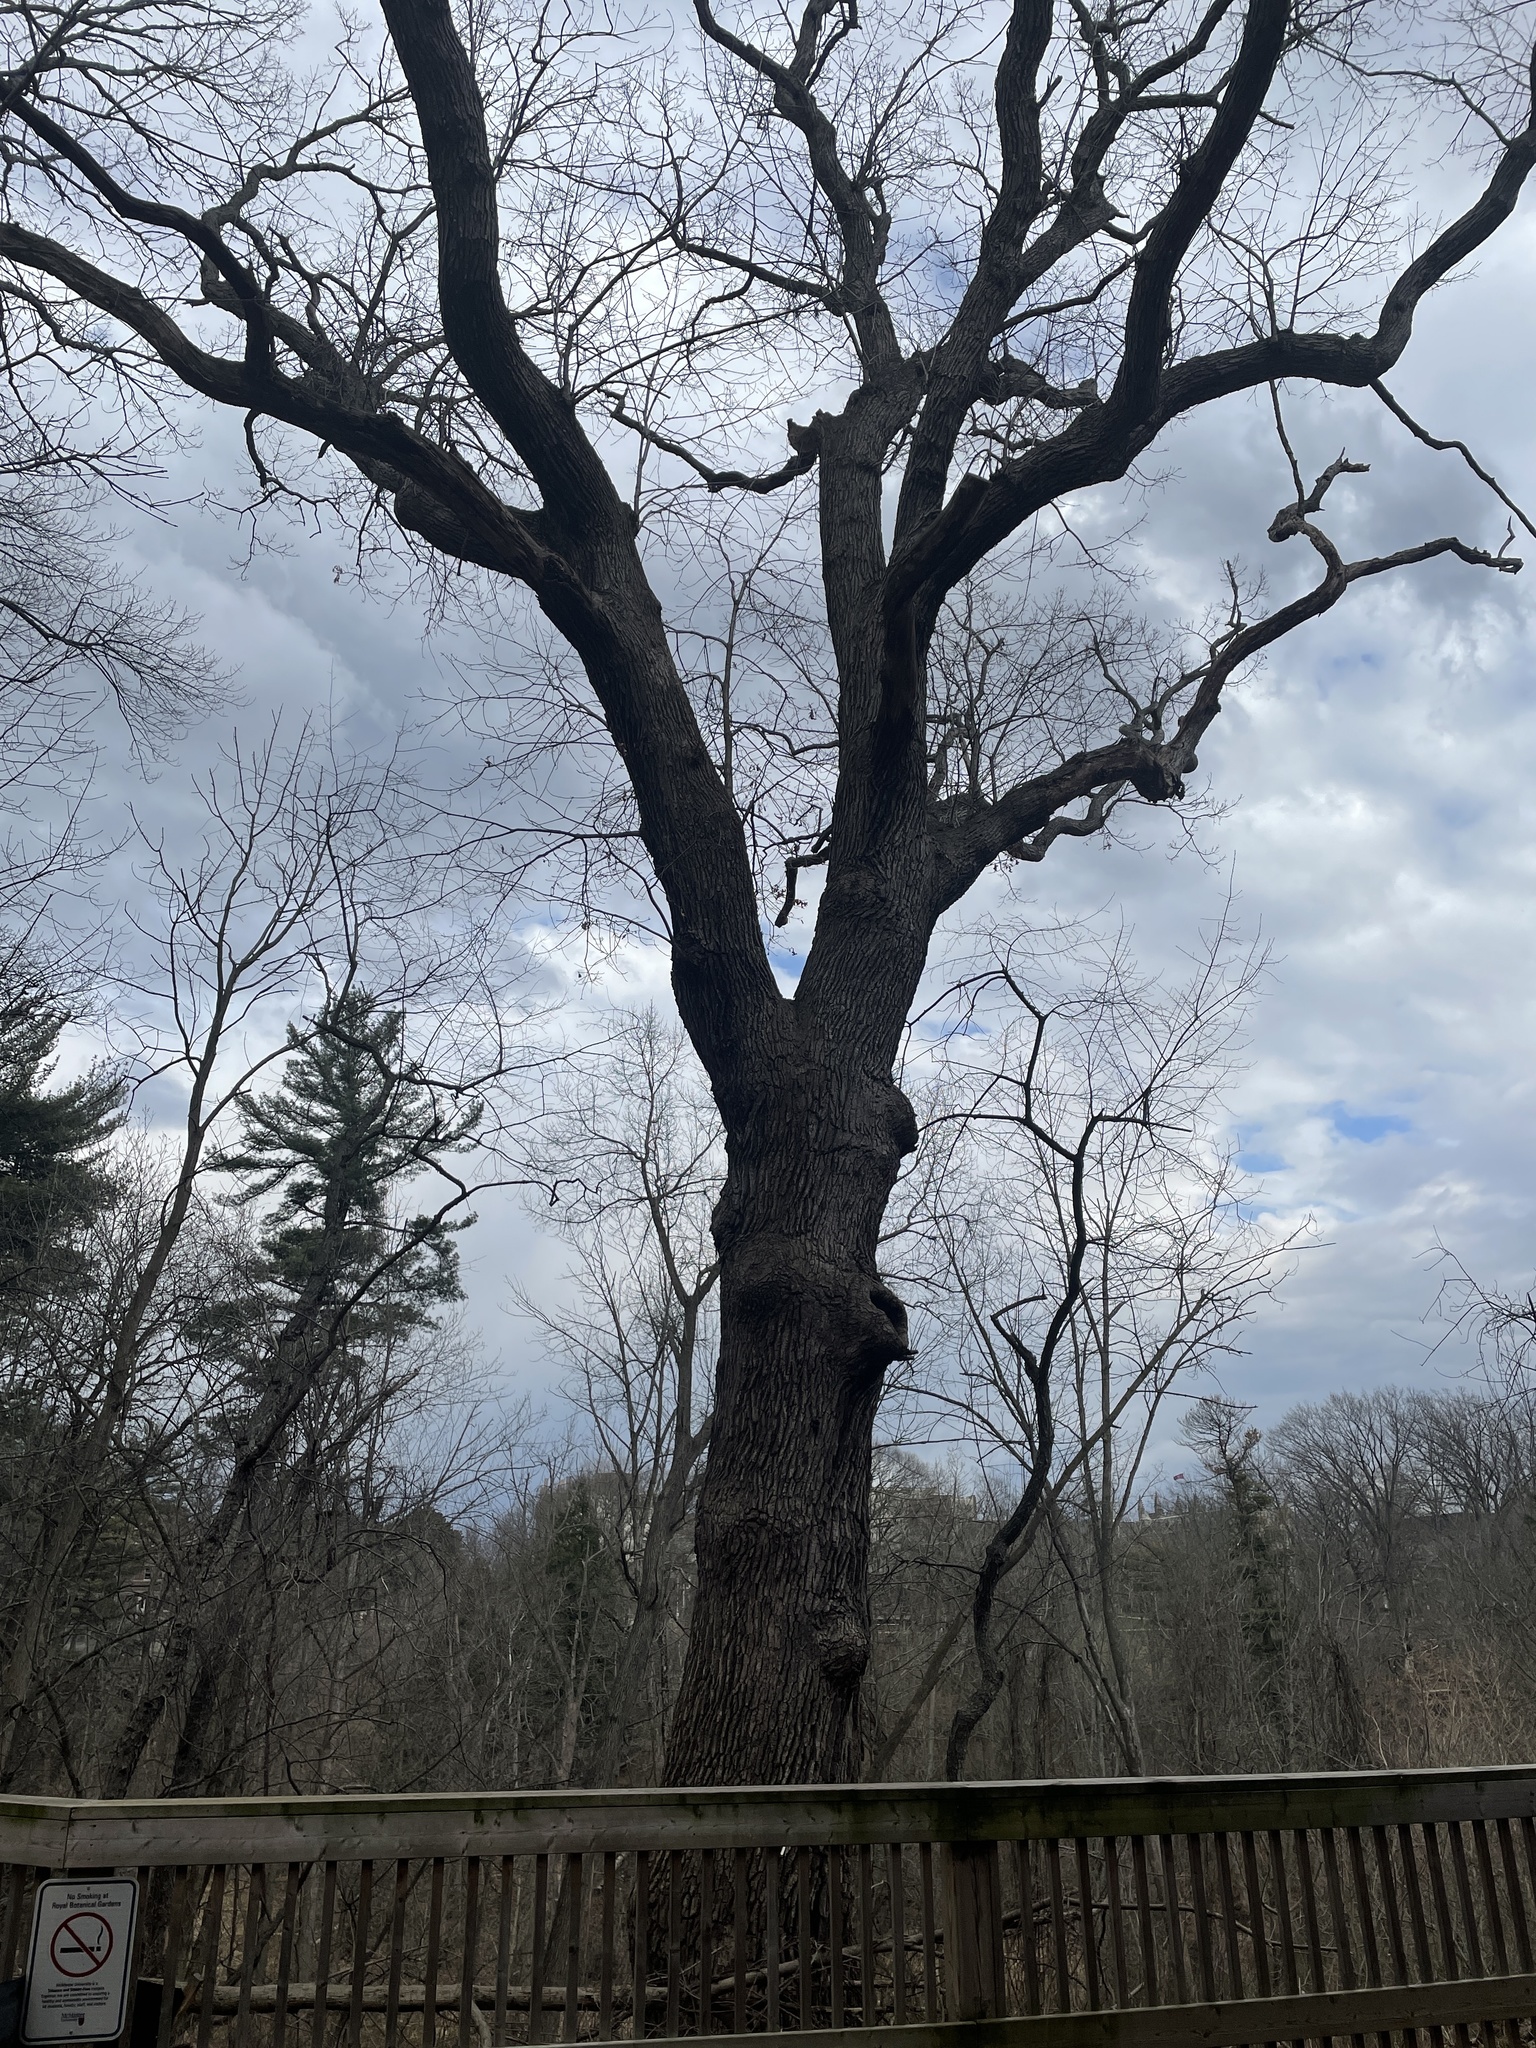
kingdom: Plantae
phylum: Tracheophyta
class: Magnoliopsida
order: Fagales
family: Fagaceae
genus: Quercus
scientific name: Quercus alba
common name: White oak
